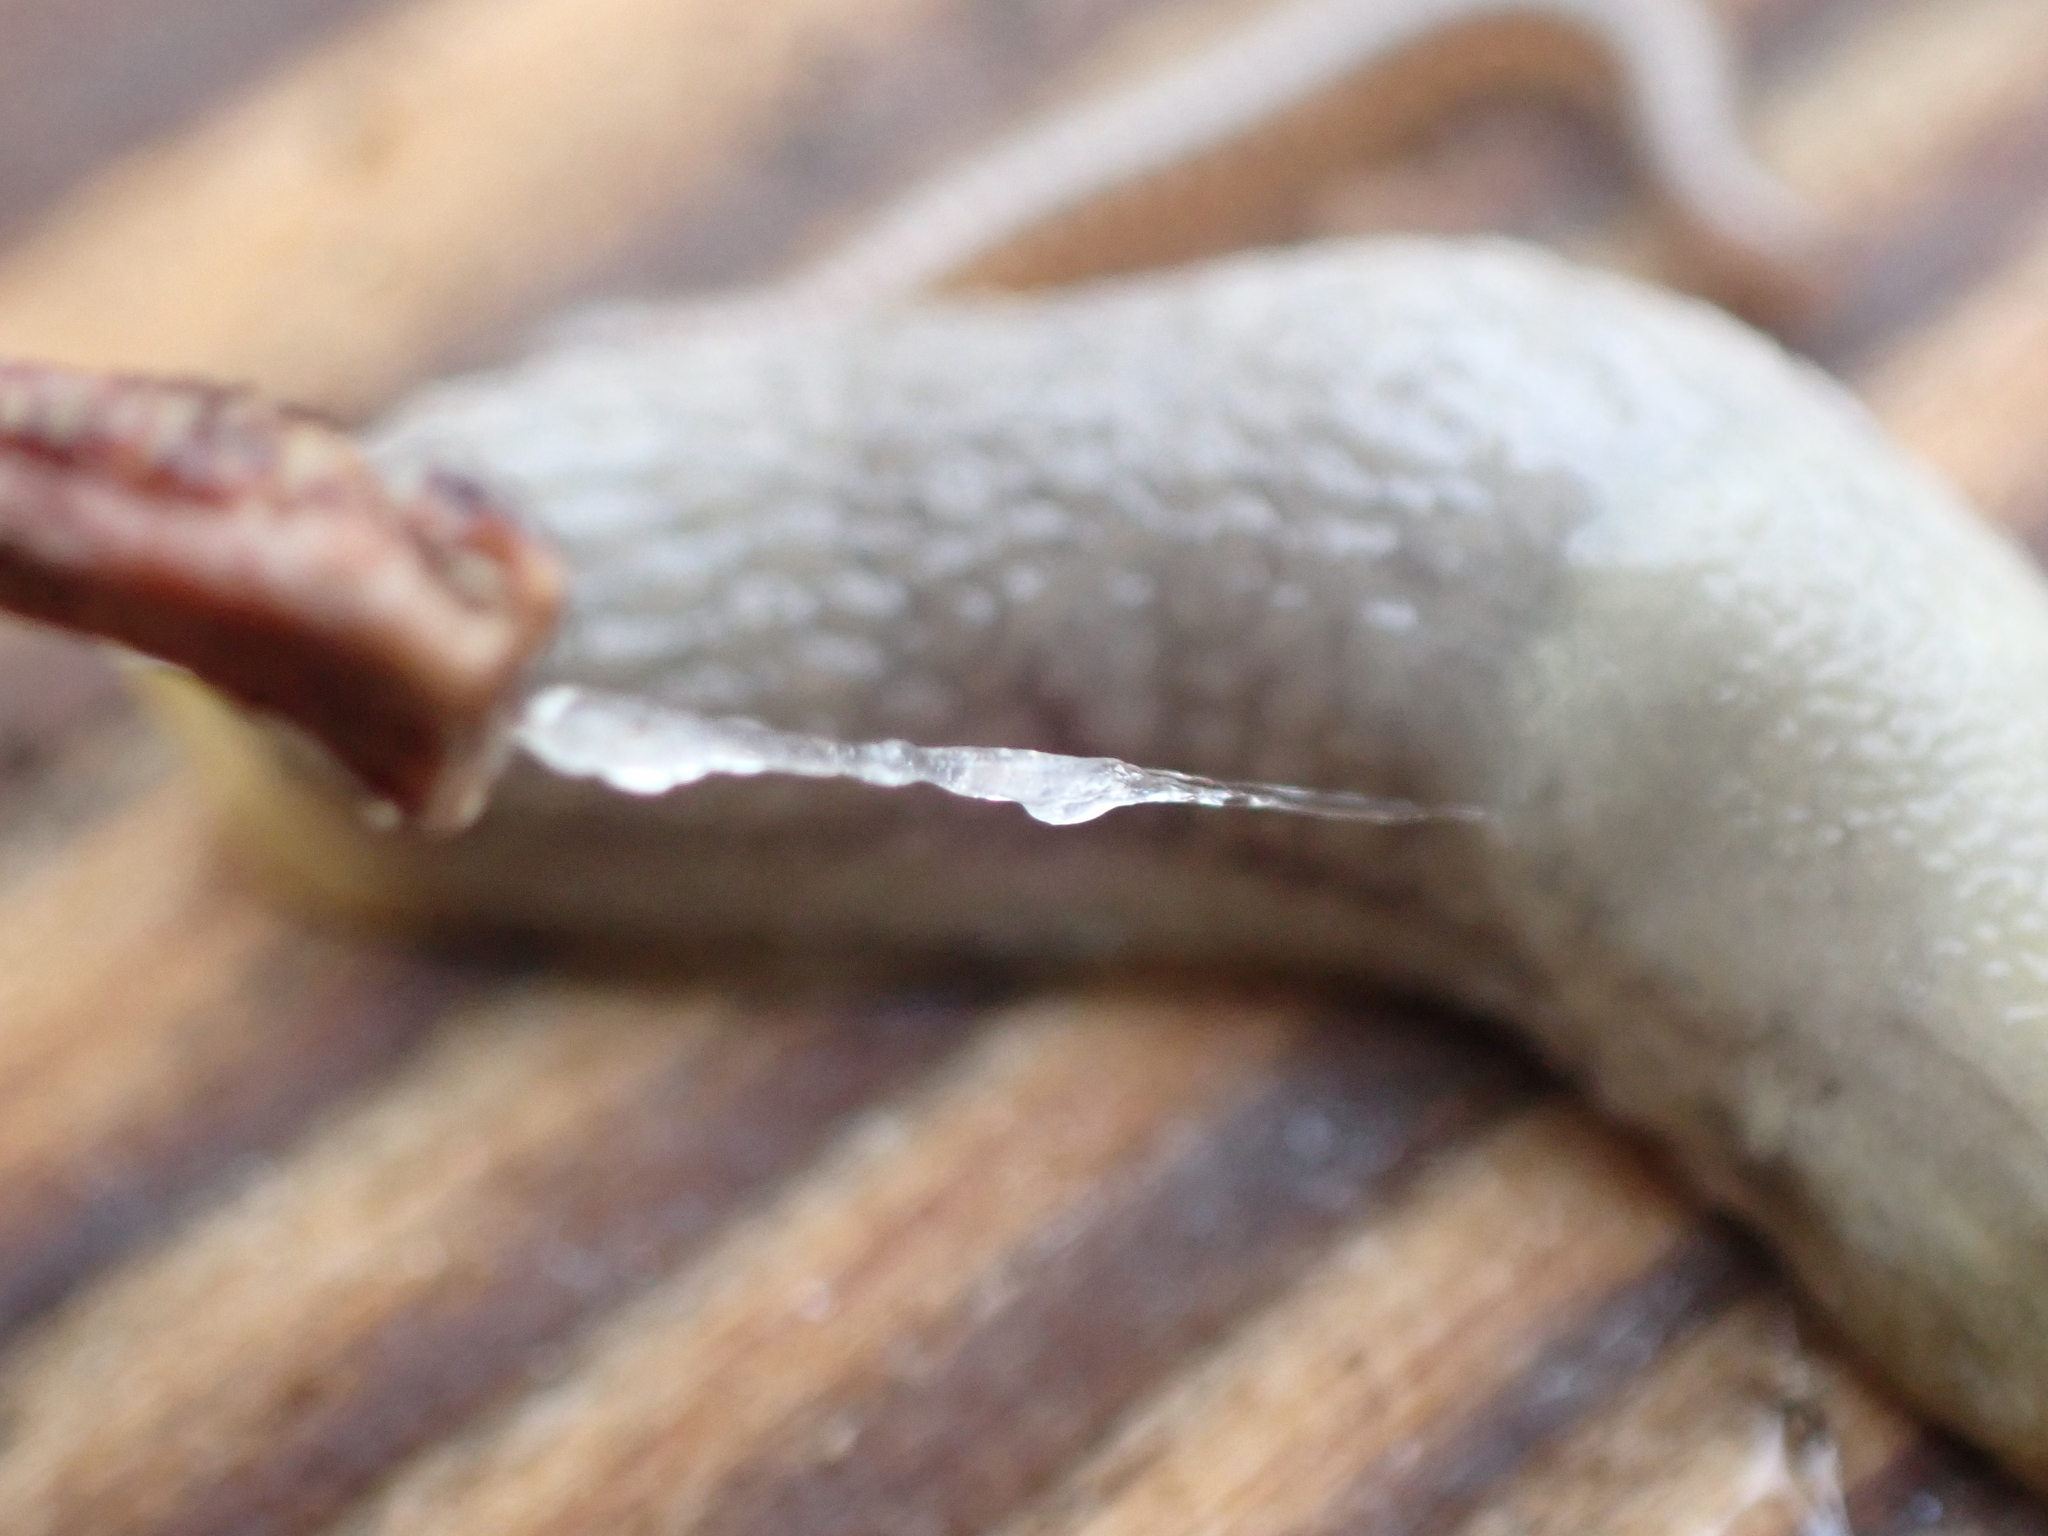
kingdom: Animalia
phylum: Mollusca
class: Gastropoda
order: Stylommatophora
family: Arionidae
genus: Arion
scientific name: Arion intermedius
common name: Hedgehog slug
